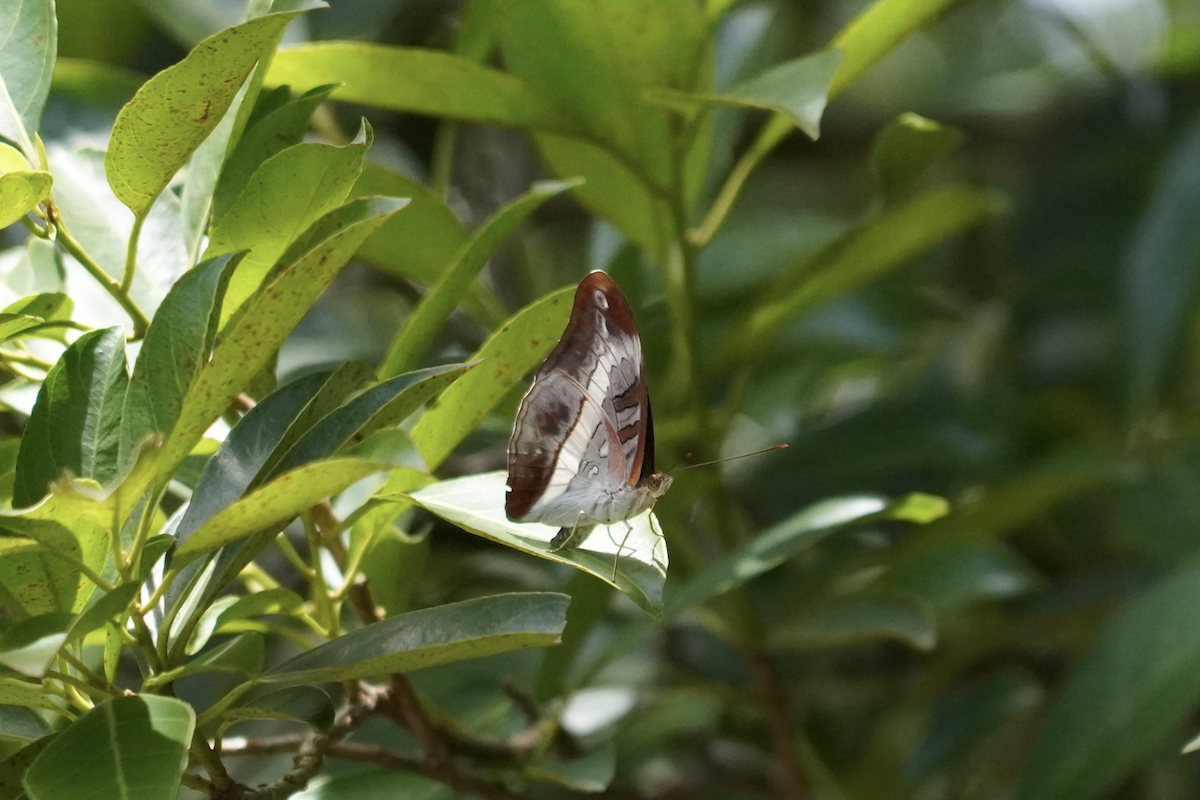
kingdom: Animalia
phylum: Arthropoda
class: Insecta
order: Lepidoptera
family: Nymphalidae
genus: Limenitis
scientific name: Limenitis Parasarpa dudu
